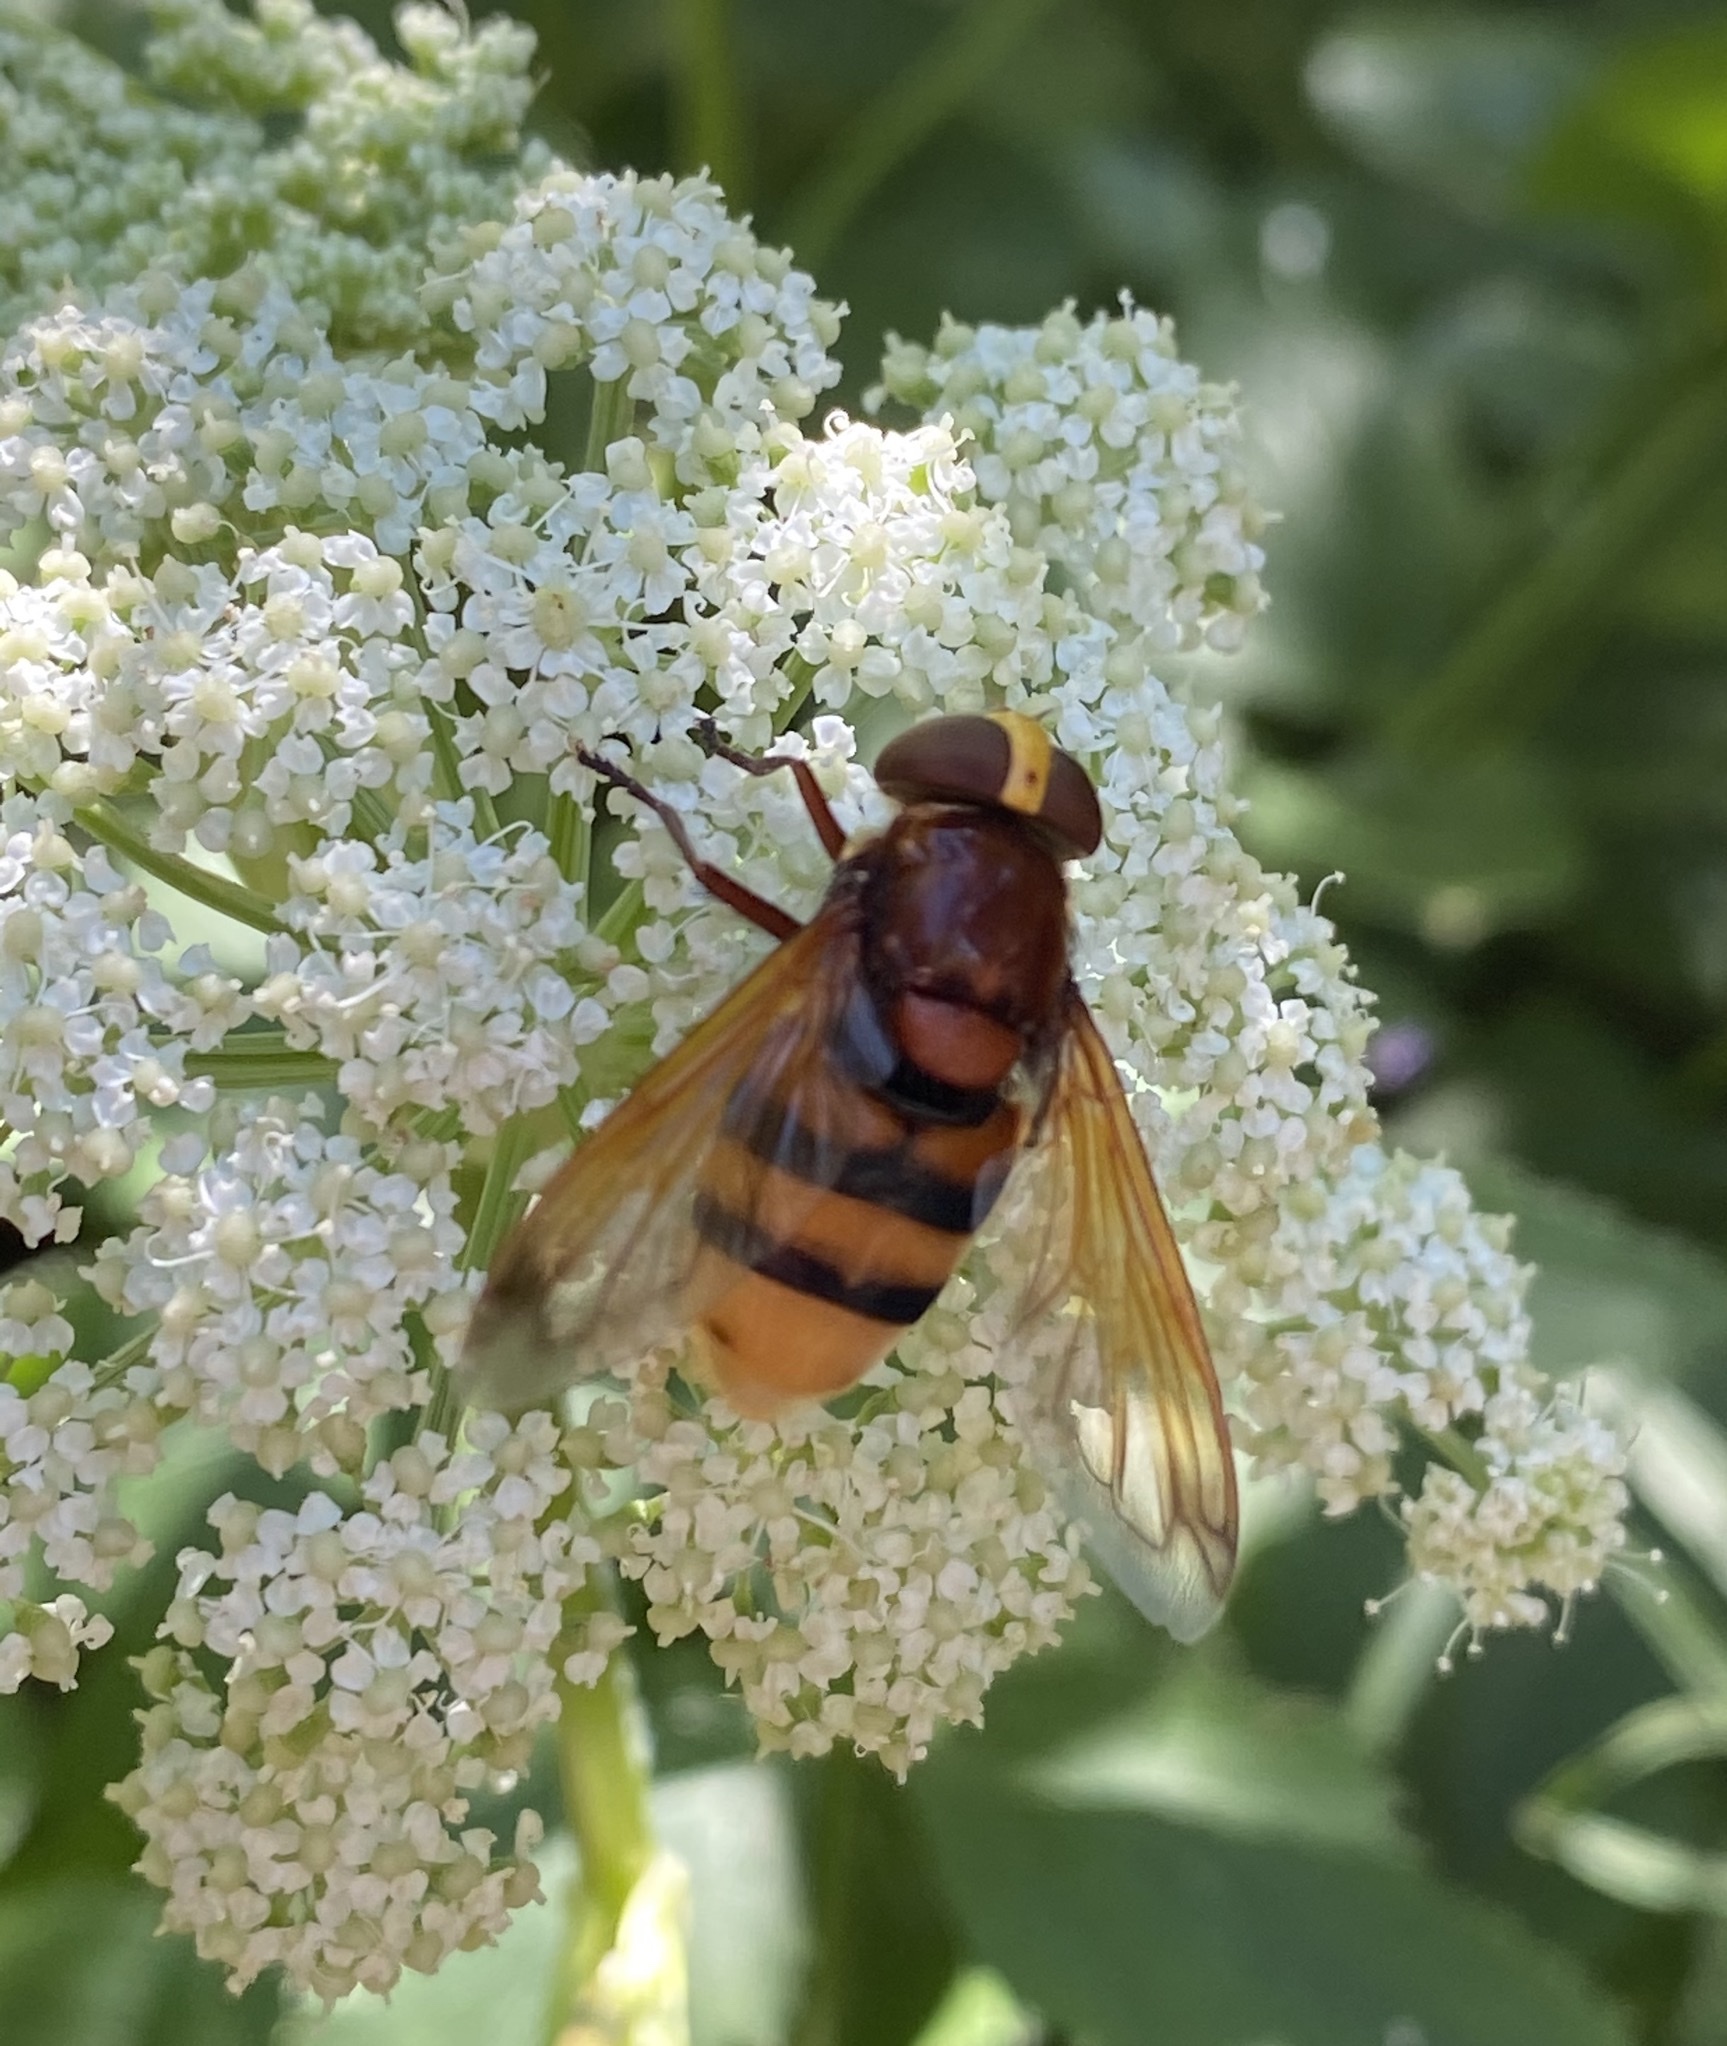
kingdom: Animalia
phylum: Arthropoda
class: Insecta
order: Diptera
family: Syrphidae
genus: Volucella
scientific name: Volucella zonaria
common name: Hornet hoverfly
